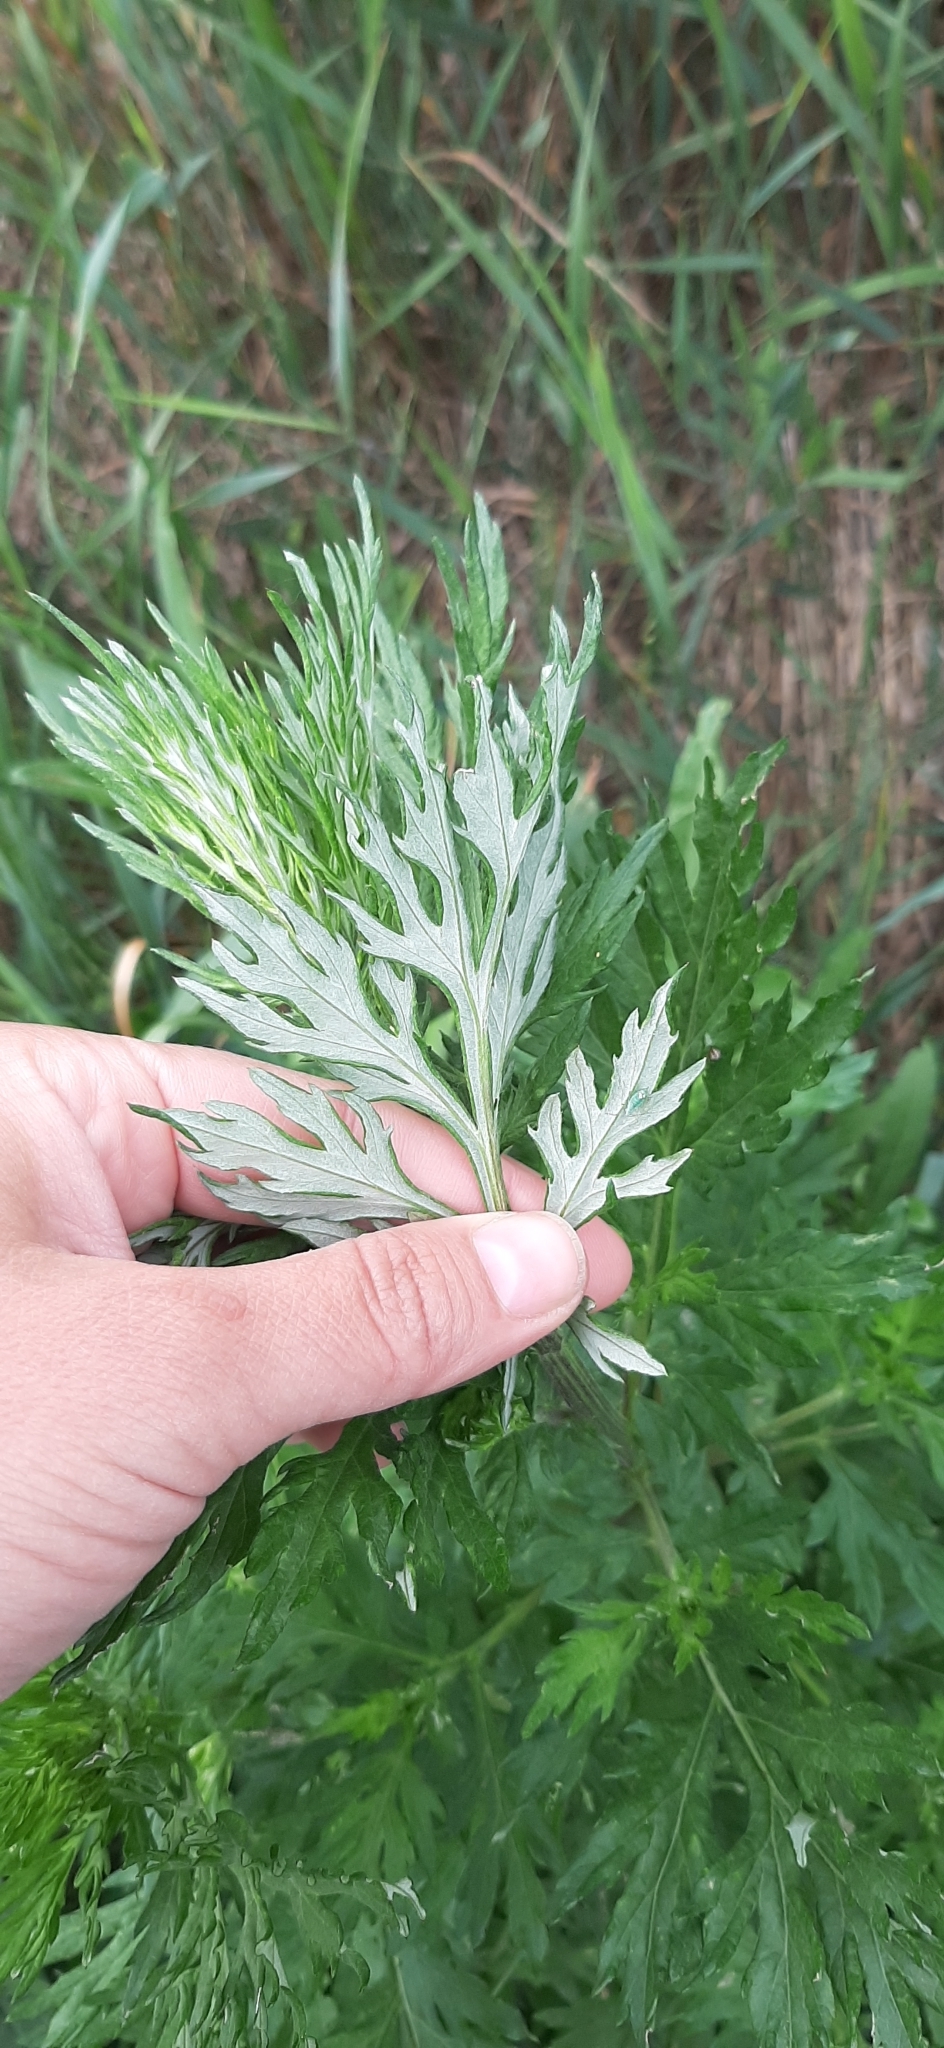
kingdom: Plantae
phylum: Tracheophyta
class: Magnoliopsida
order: Asterales
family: Asteraceae
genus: Artemisia
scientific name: Artemisia vulgaris
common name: Mugwort
